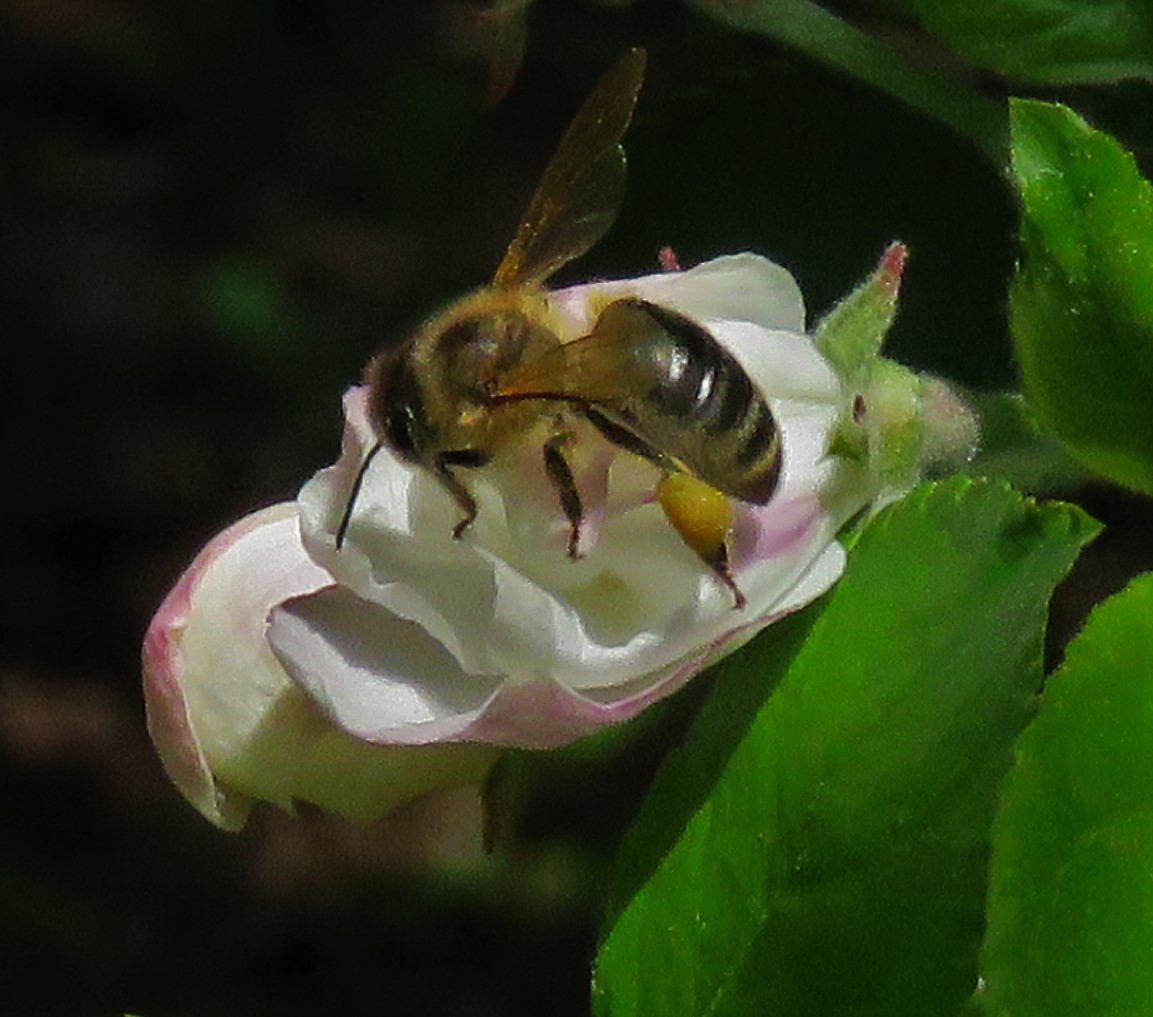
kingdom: Animalia
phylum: Arthropoda
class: Insecta
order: Hymenoptera
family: Apidae
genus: Apis
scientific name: Apis mellifera
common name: Honey bee
